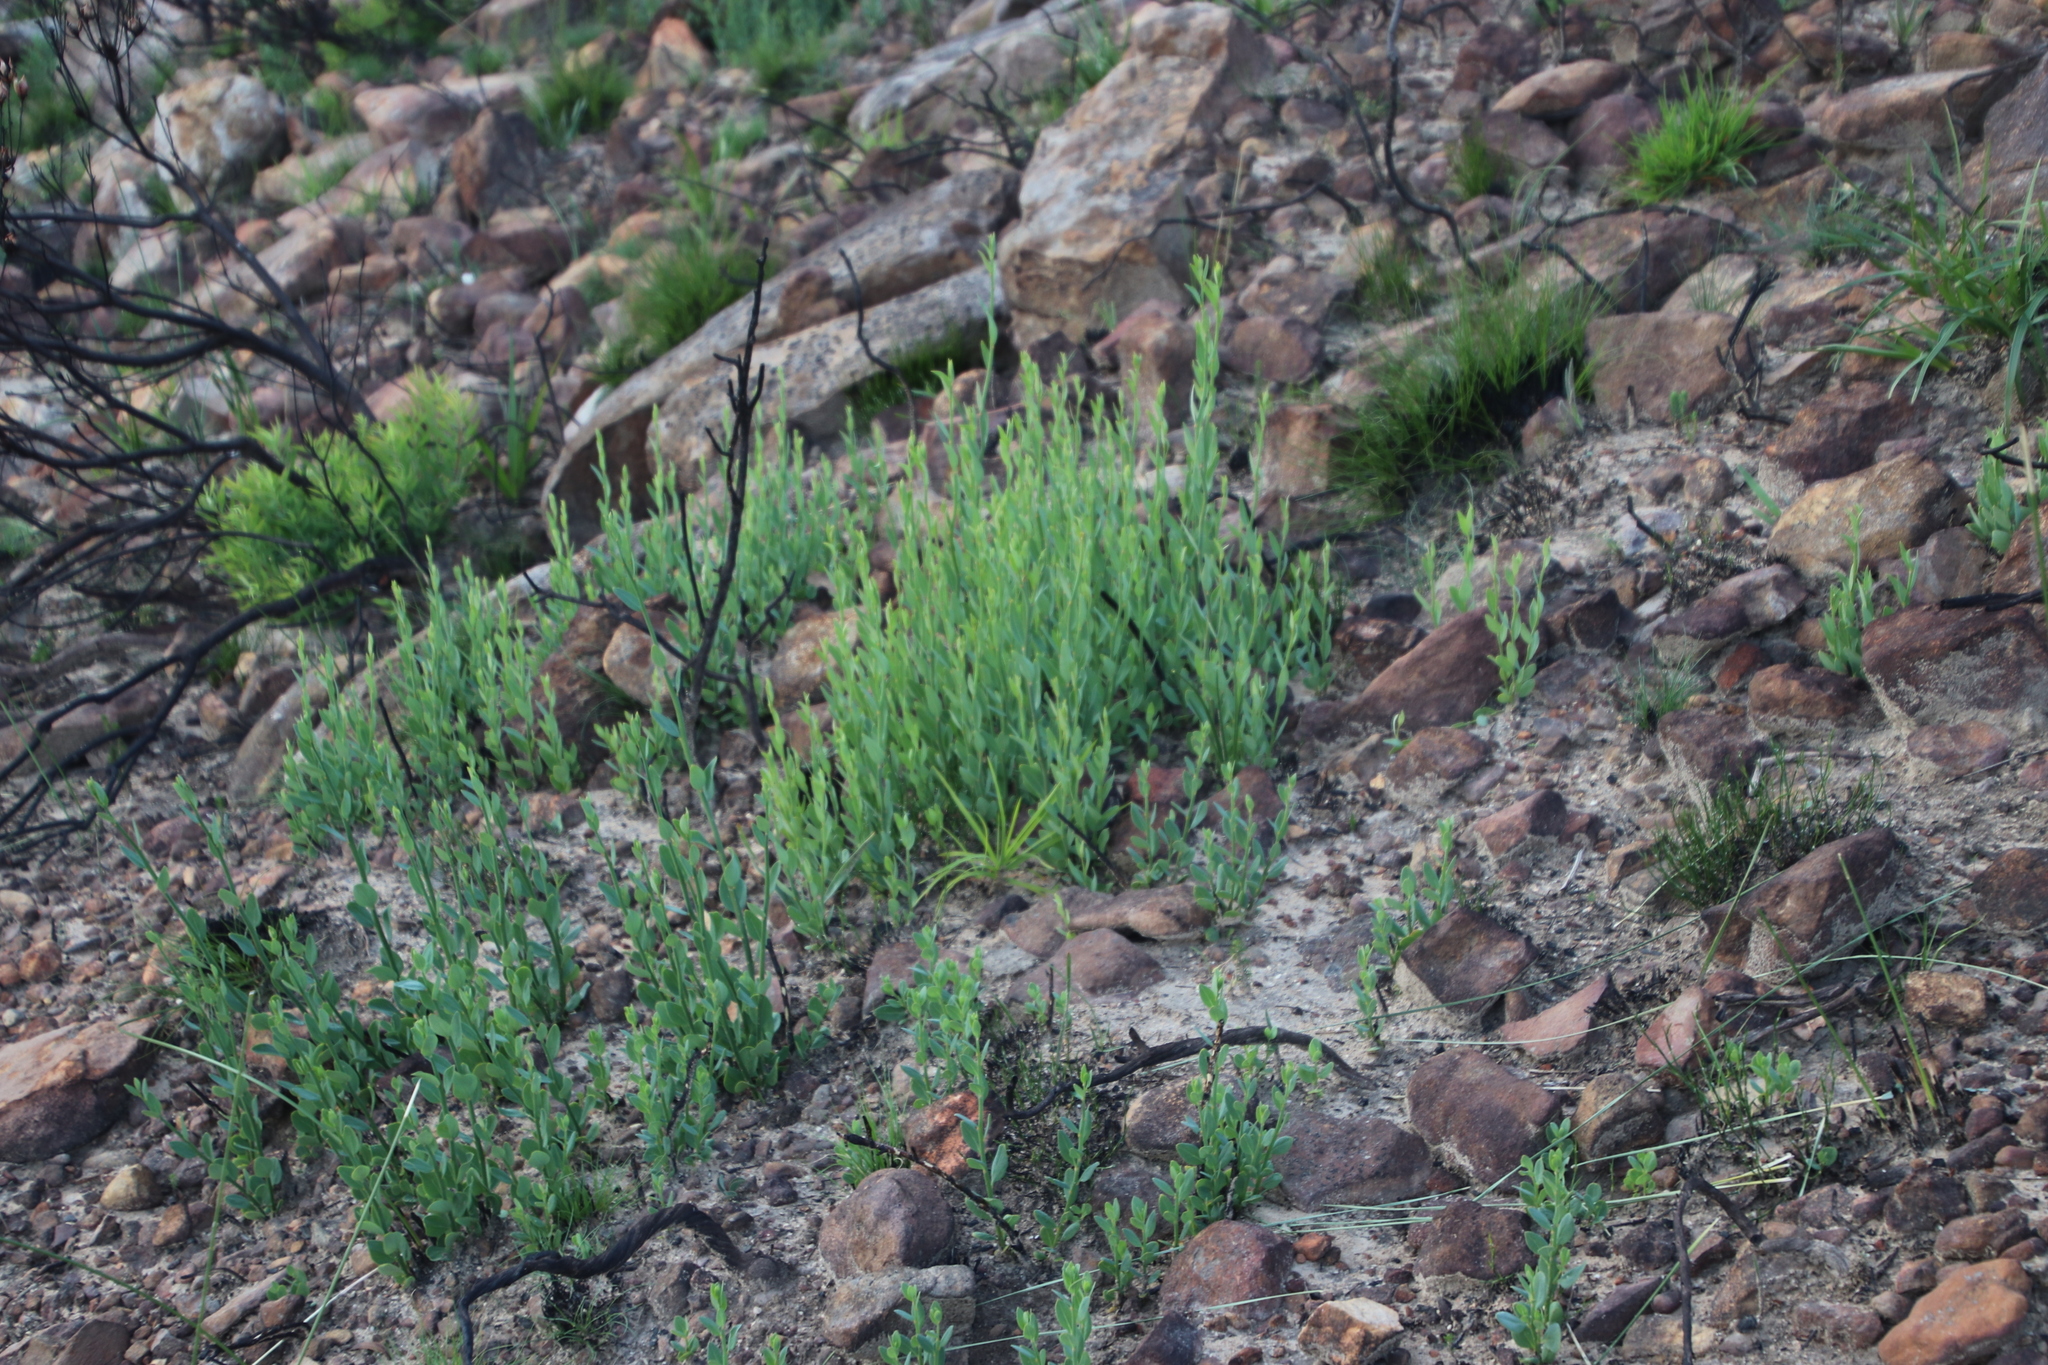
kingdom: Plantae
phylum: Tracheophyta
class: Magnoliopsida
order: Solanales
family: Montiniaceae
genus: Montinia
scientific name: Montinia caryophyllacea
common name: Wild clove-bush
